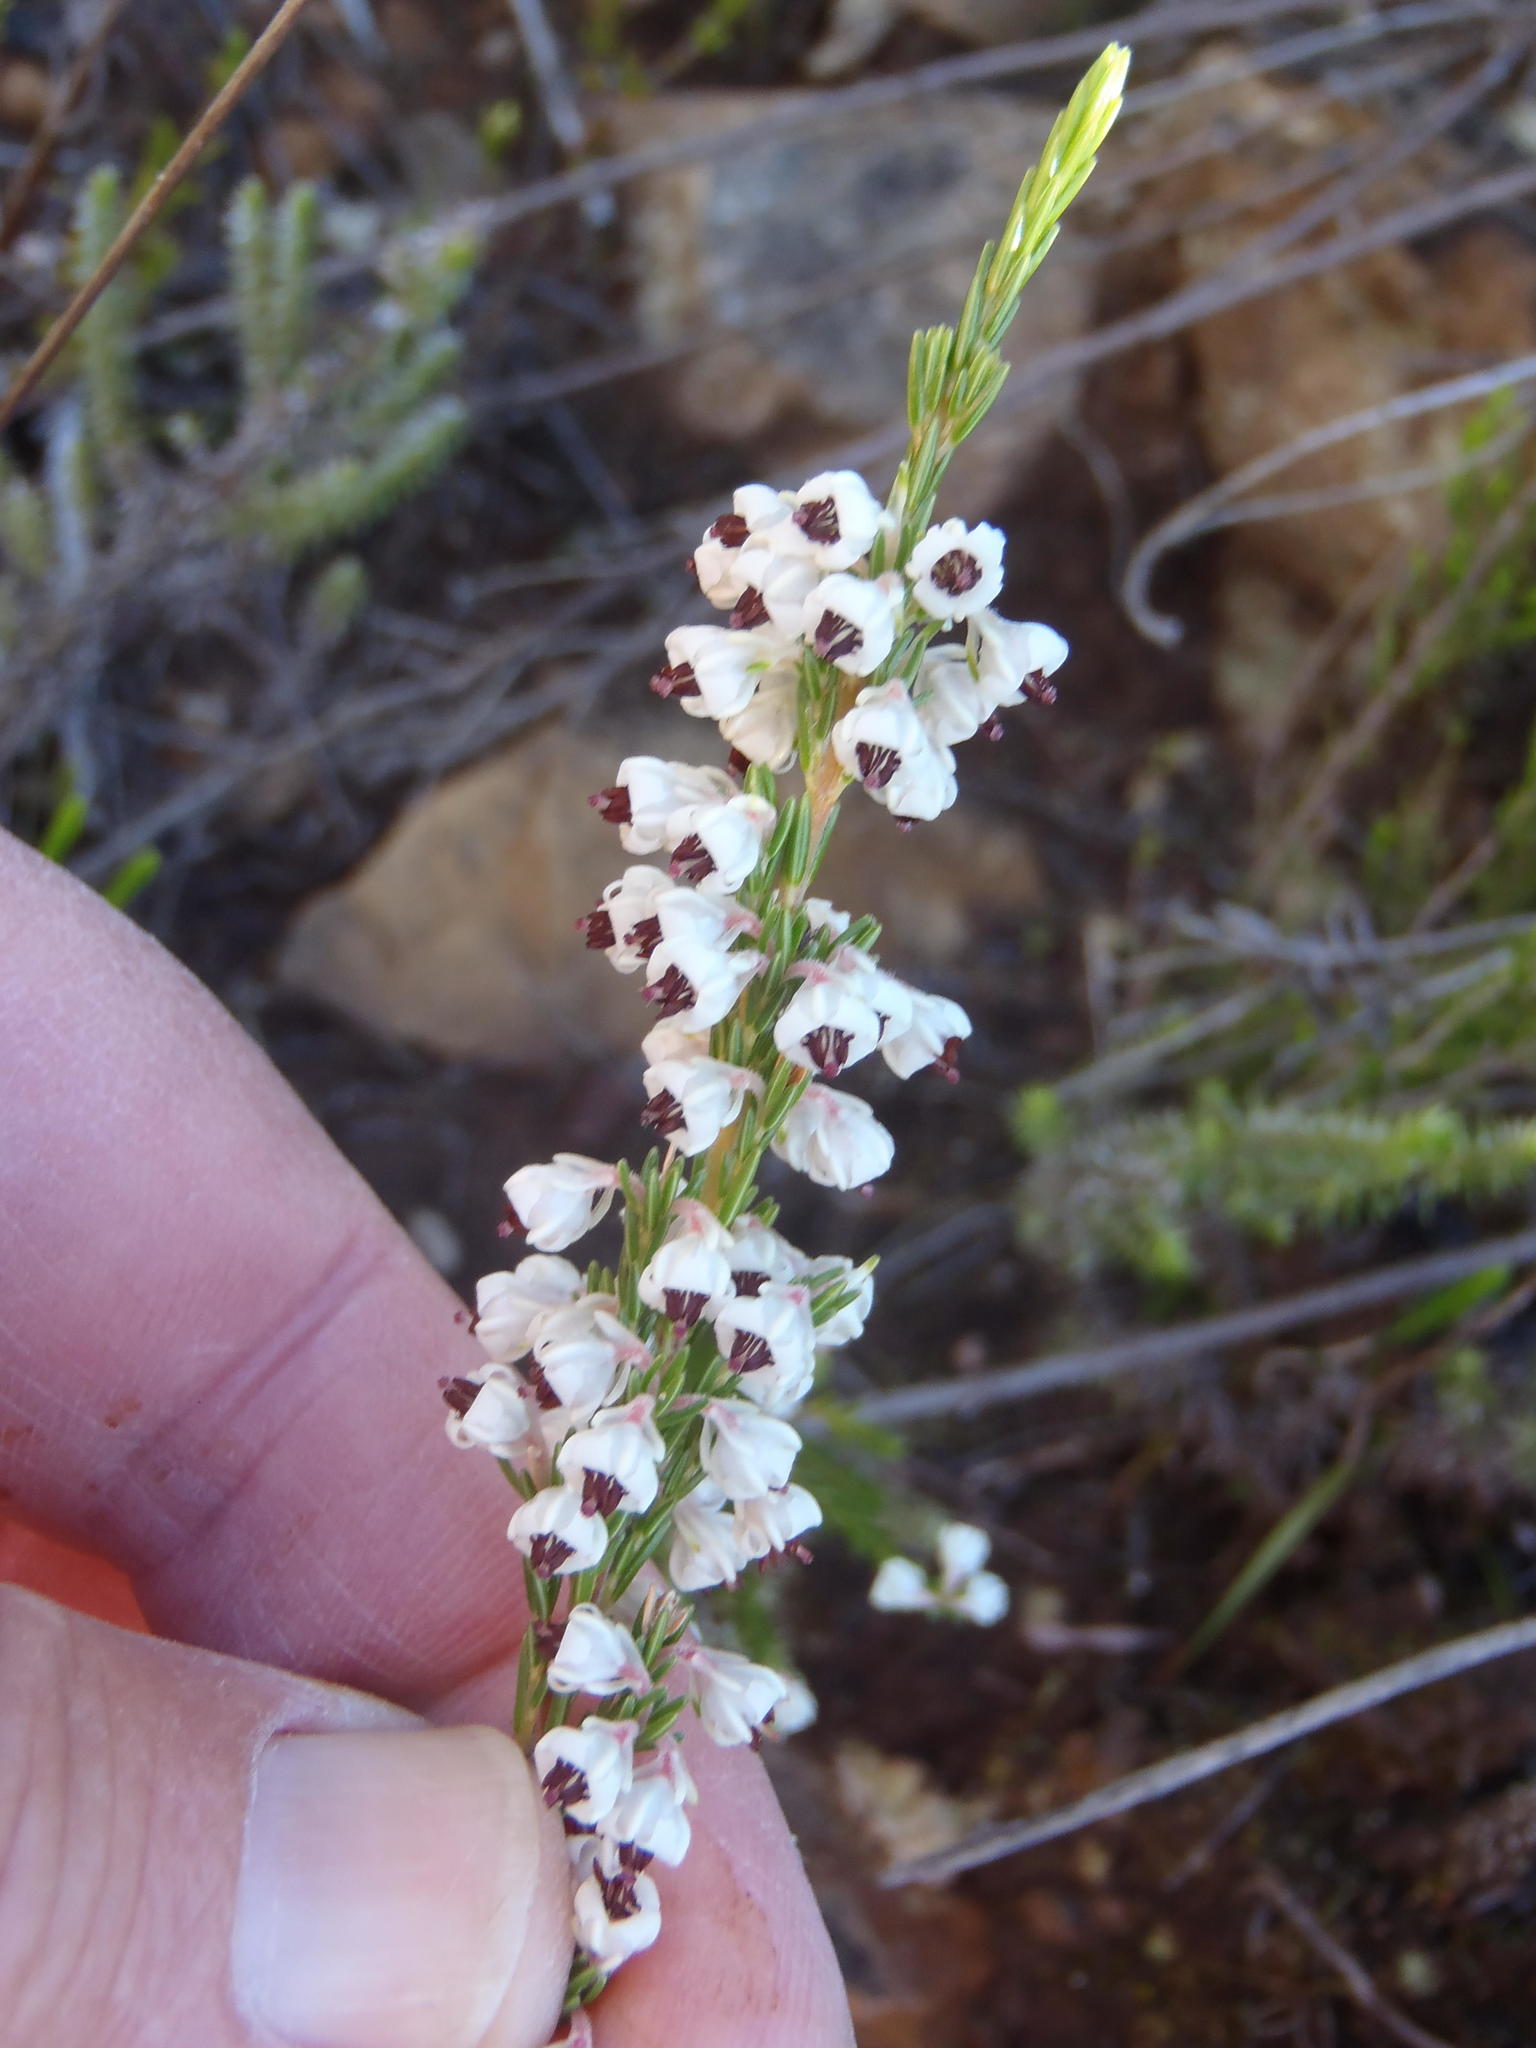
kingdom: Plantae
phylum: Tracheophyta
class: Magnoliopsida
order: Ericales
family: Ericaceae
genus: Erica
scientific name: Erica calycina
